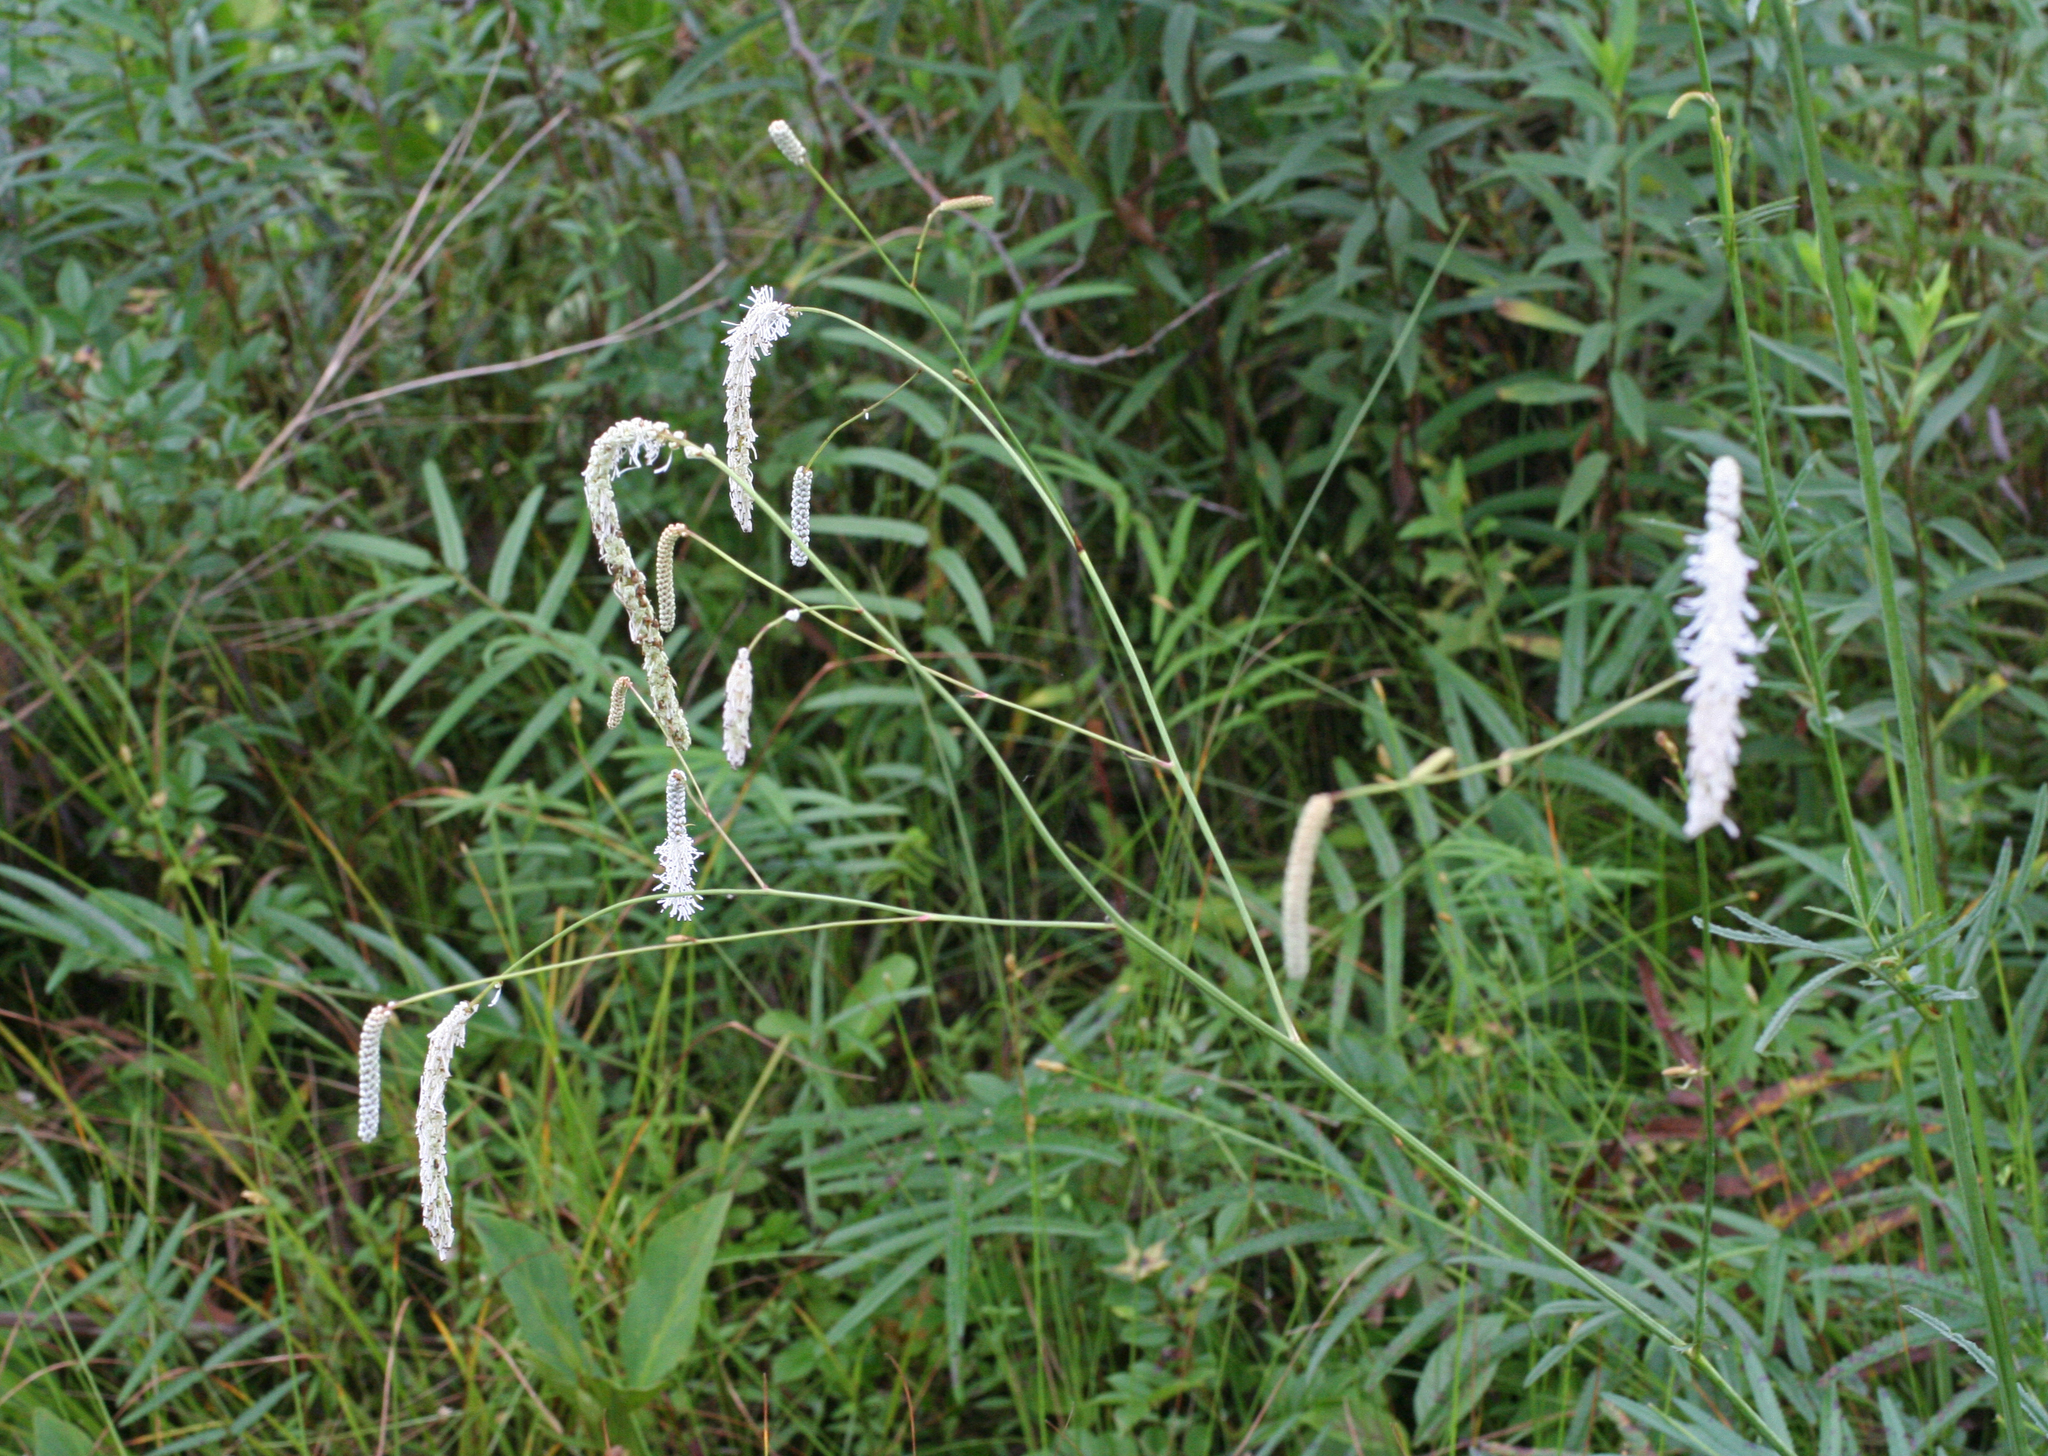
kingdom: Plantae
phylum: Tracheophyta
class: Magnoliopsida
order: Rosales
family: Rosaceae
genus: Poterium
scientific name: Poterium tenuifolium
